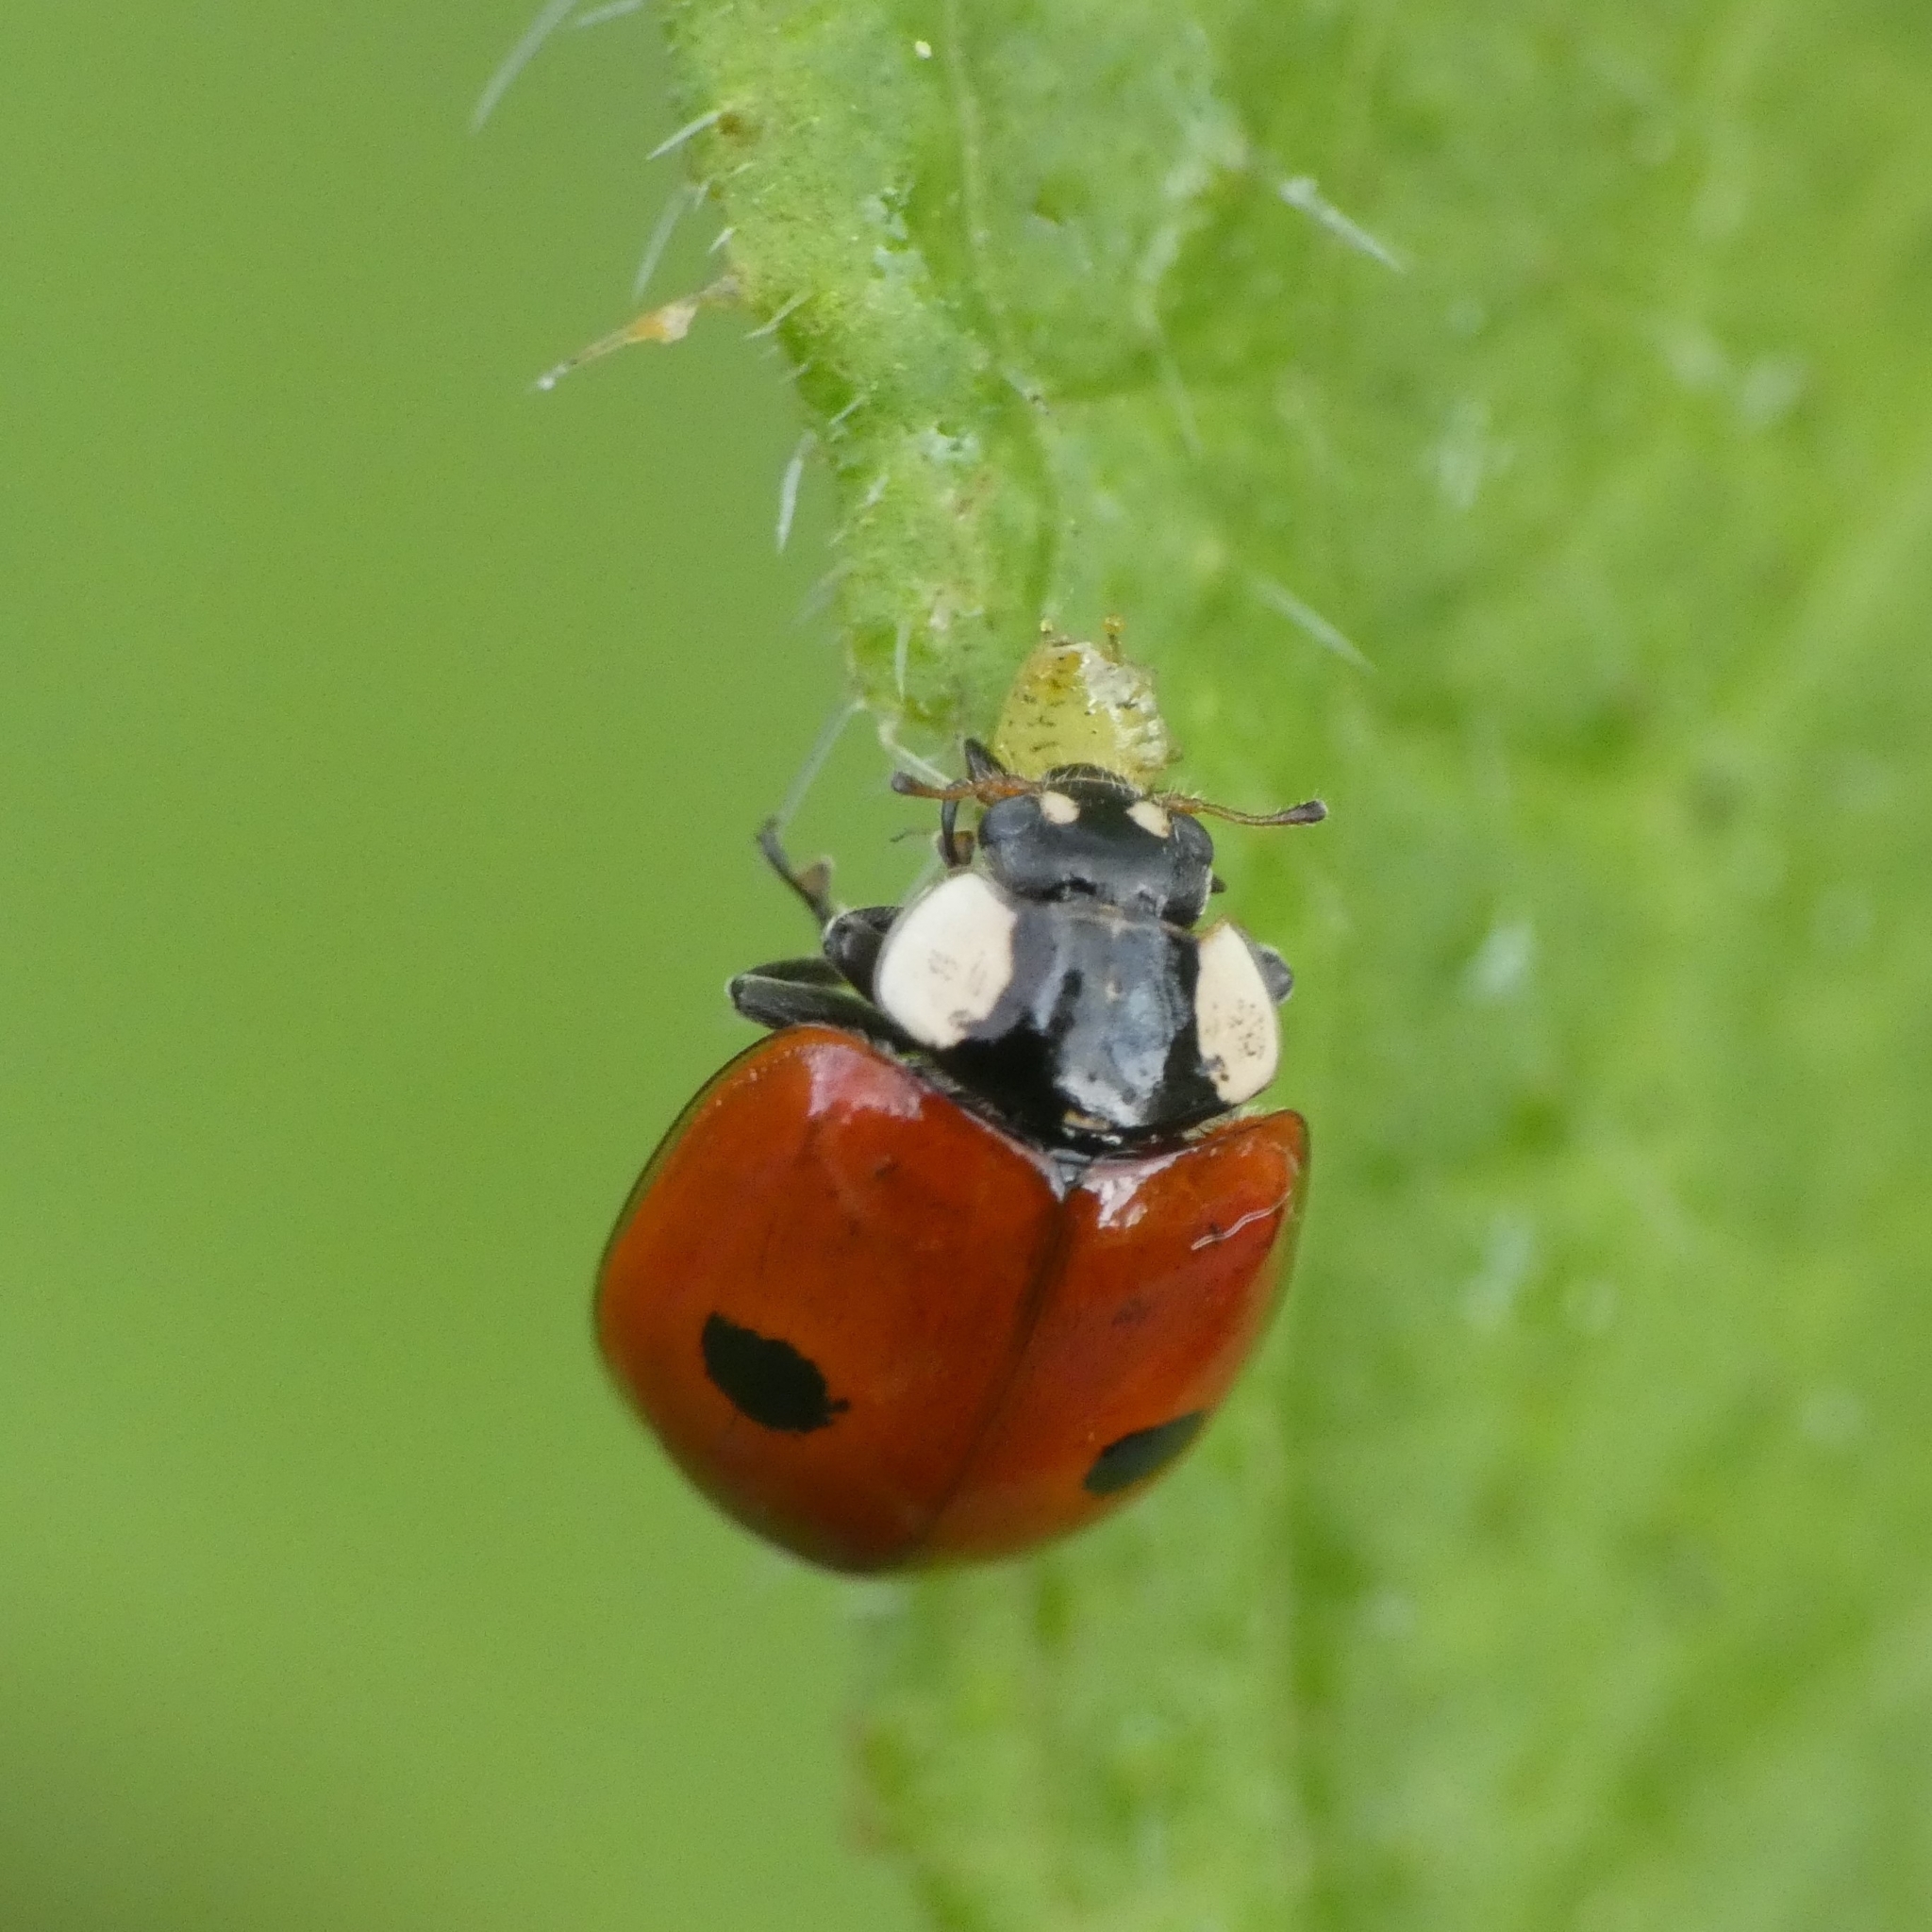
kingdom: Animalia
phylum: Arthropoda
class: Insecta
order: Coleoptera
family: Coccinellidae
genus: Adalia
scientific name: Adalia bipunctata
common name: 2-spot ladybird
